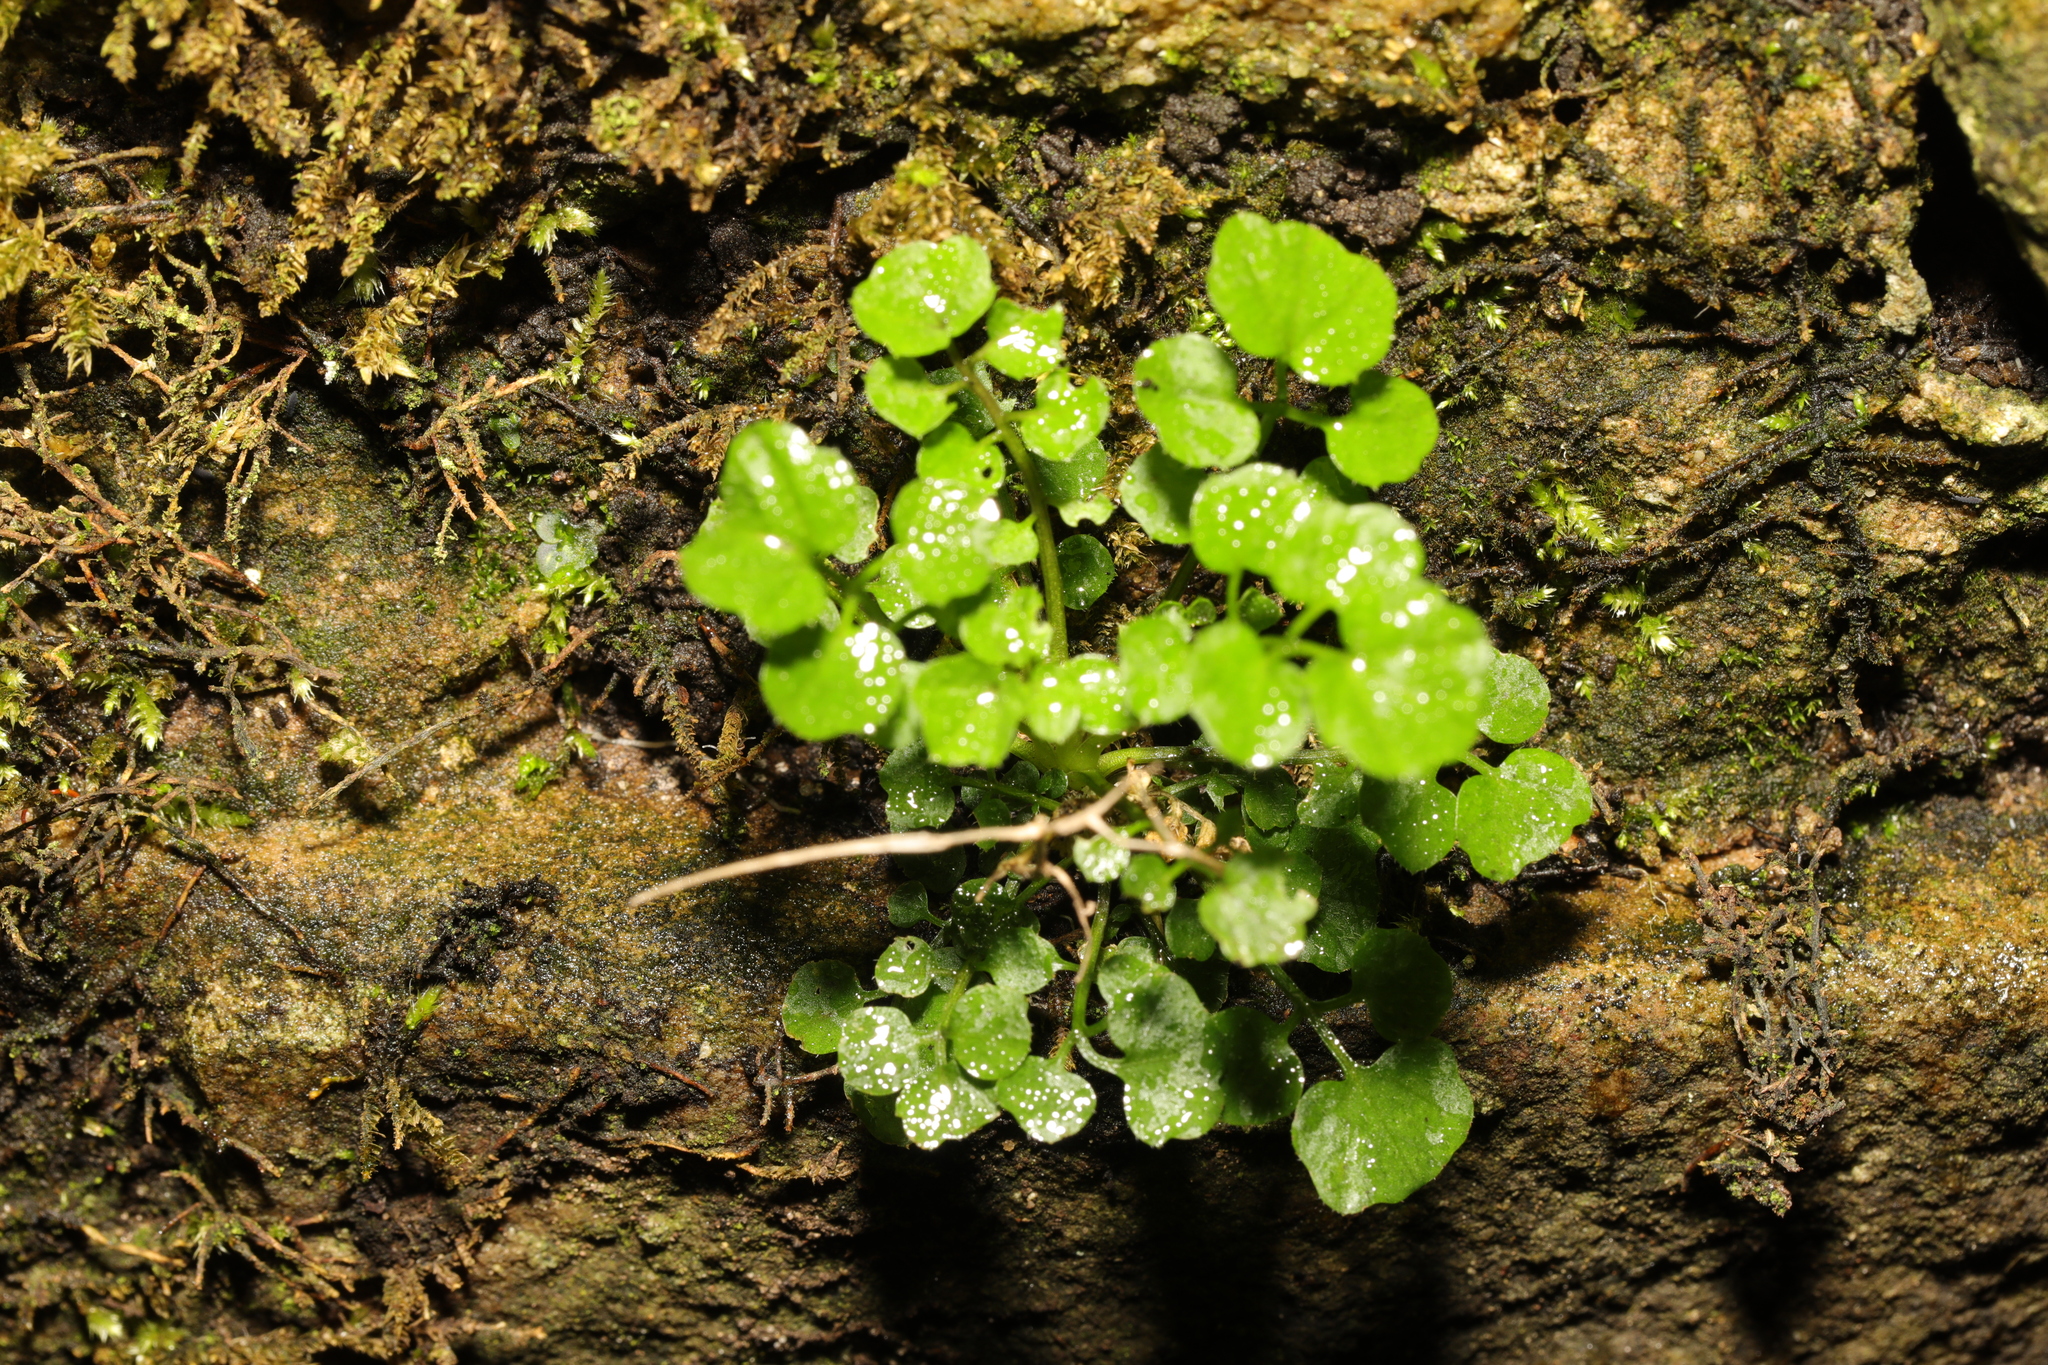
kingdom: Plantae
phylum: Tracheophyta
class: Magnoliopsida
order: Brassicales
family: Brassicaceae
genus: Cardamine
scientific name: Cardamine flexuosa
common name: Woodland bittercress
